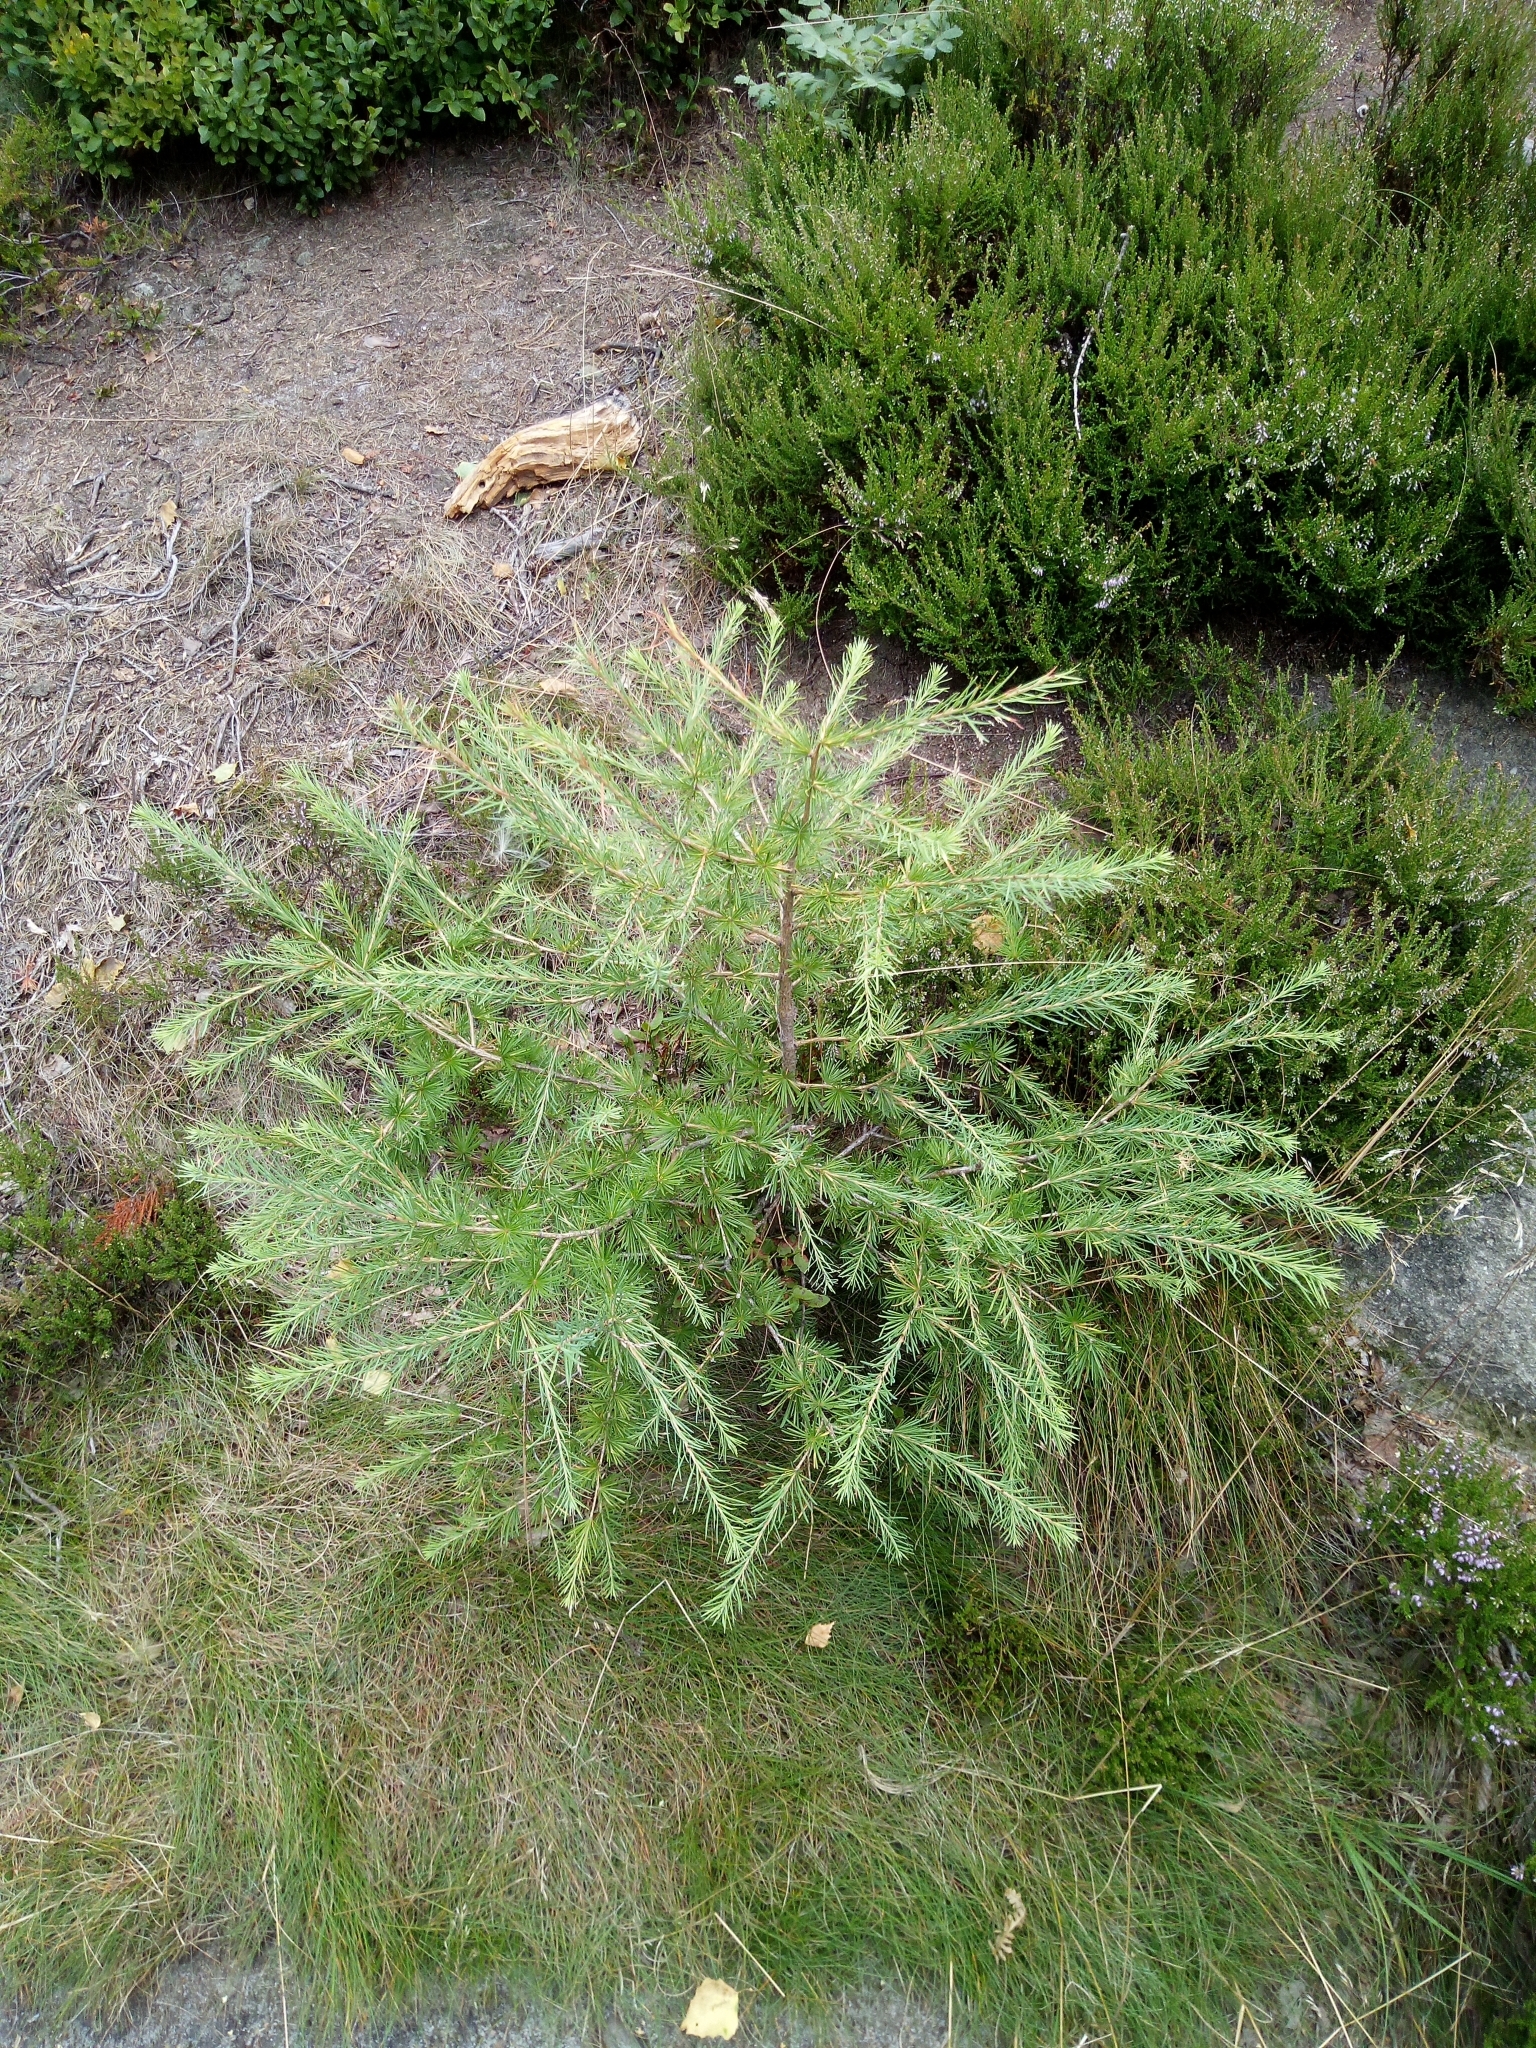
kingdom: Plantae
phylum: Tracheophyta
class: Pinopsida
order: Pinales
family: Pinaceae
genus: Larix
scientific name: Larix decidua
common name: European larch
